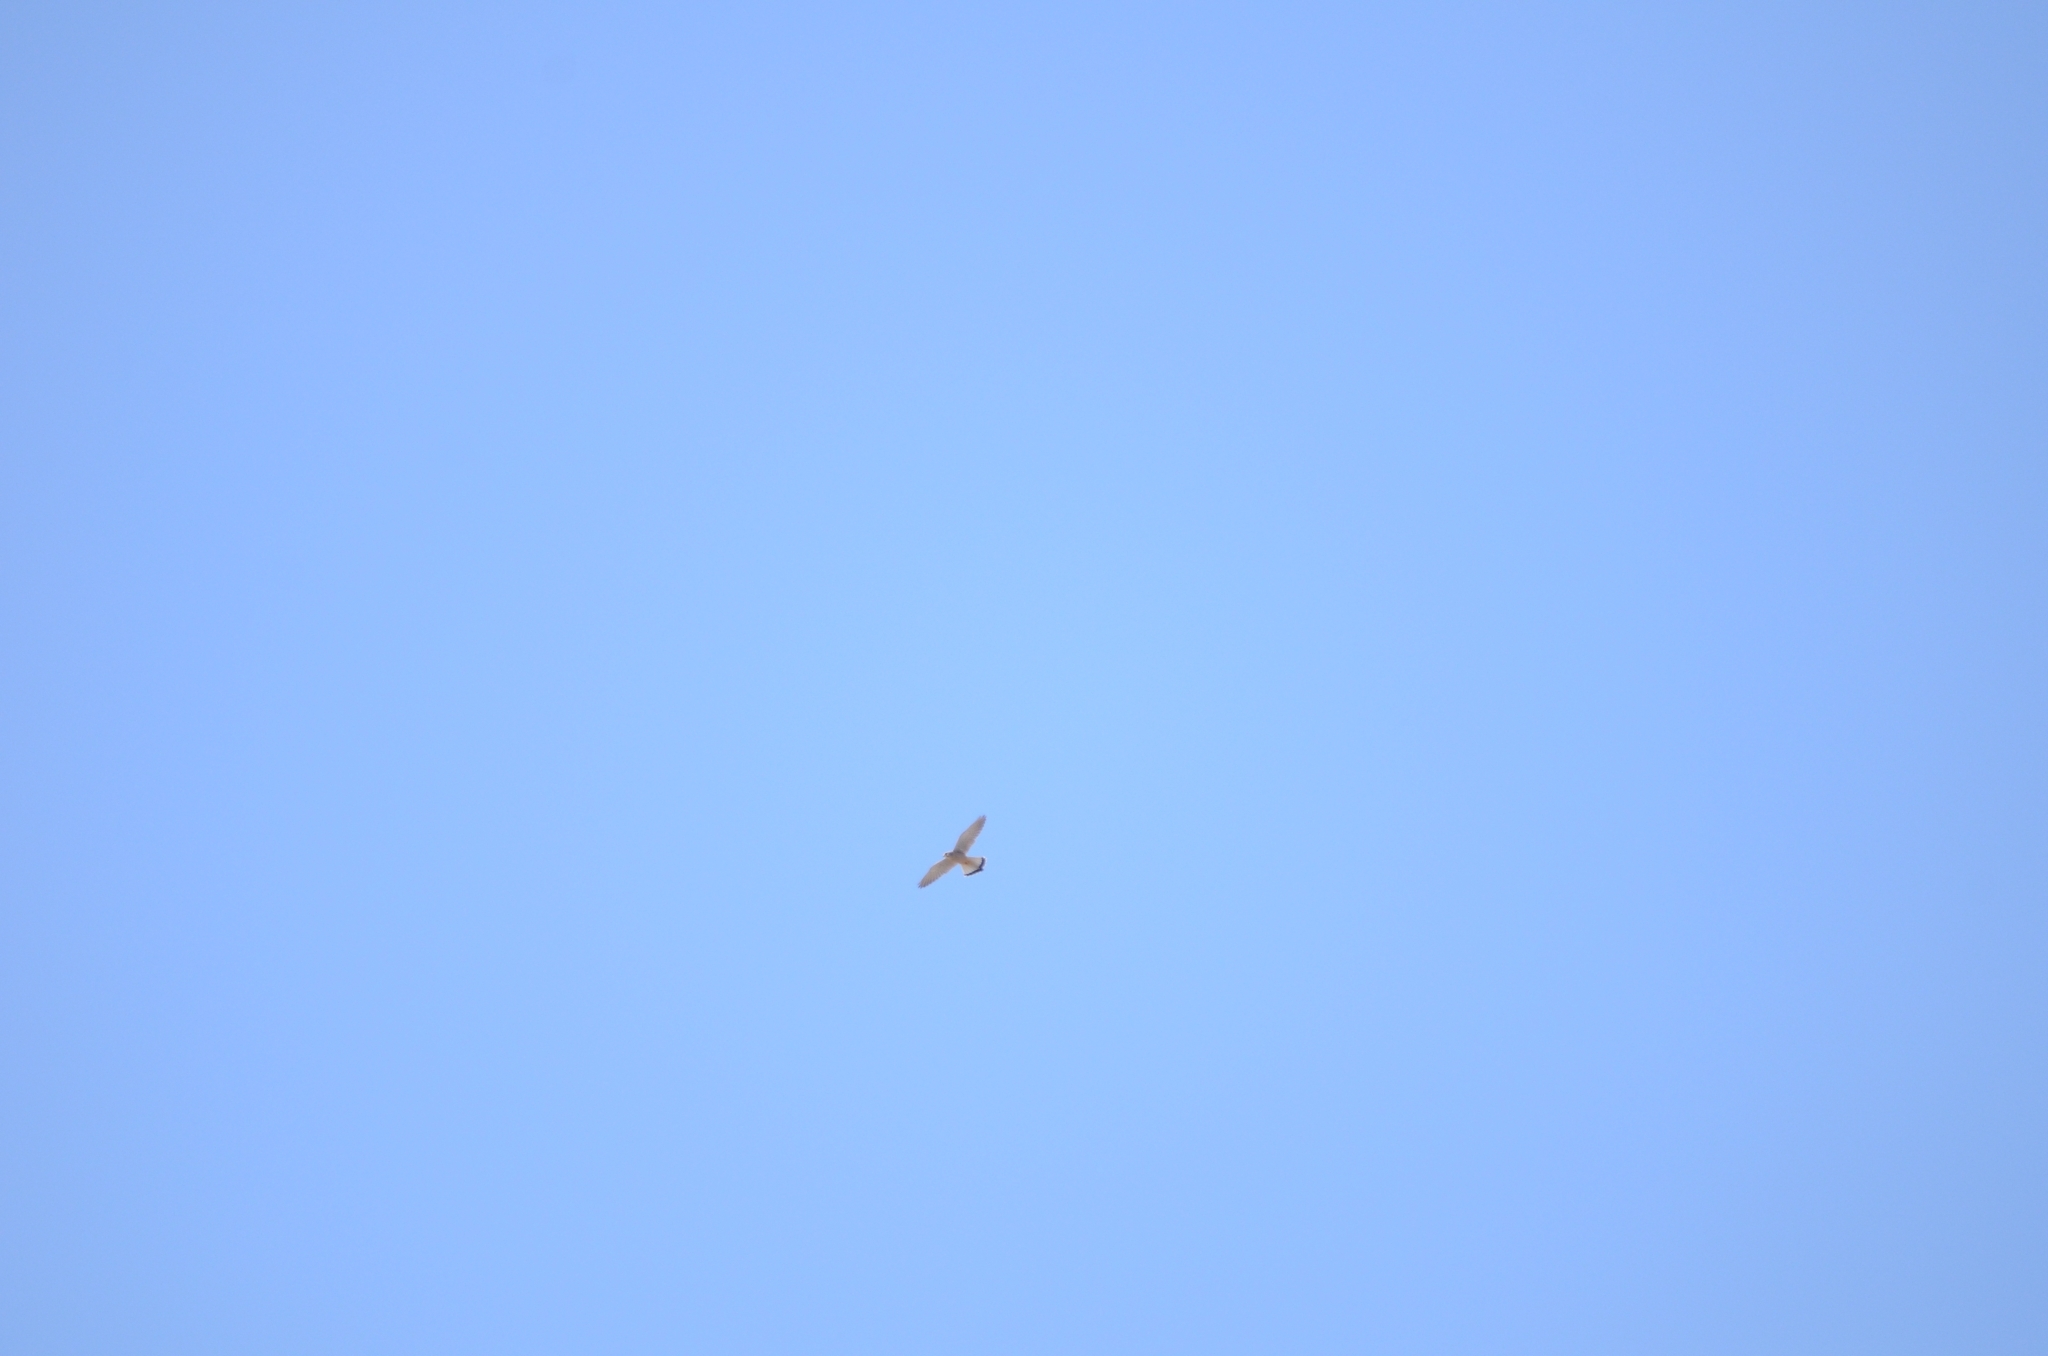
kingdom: Animalia
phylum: Chordata
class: Aves
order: Falconiformes
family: Falconidae
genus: Falco
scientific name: Falco tinnunculus
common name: Common kestrel
